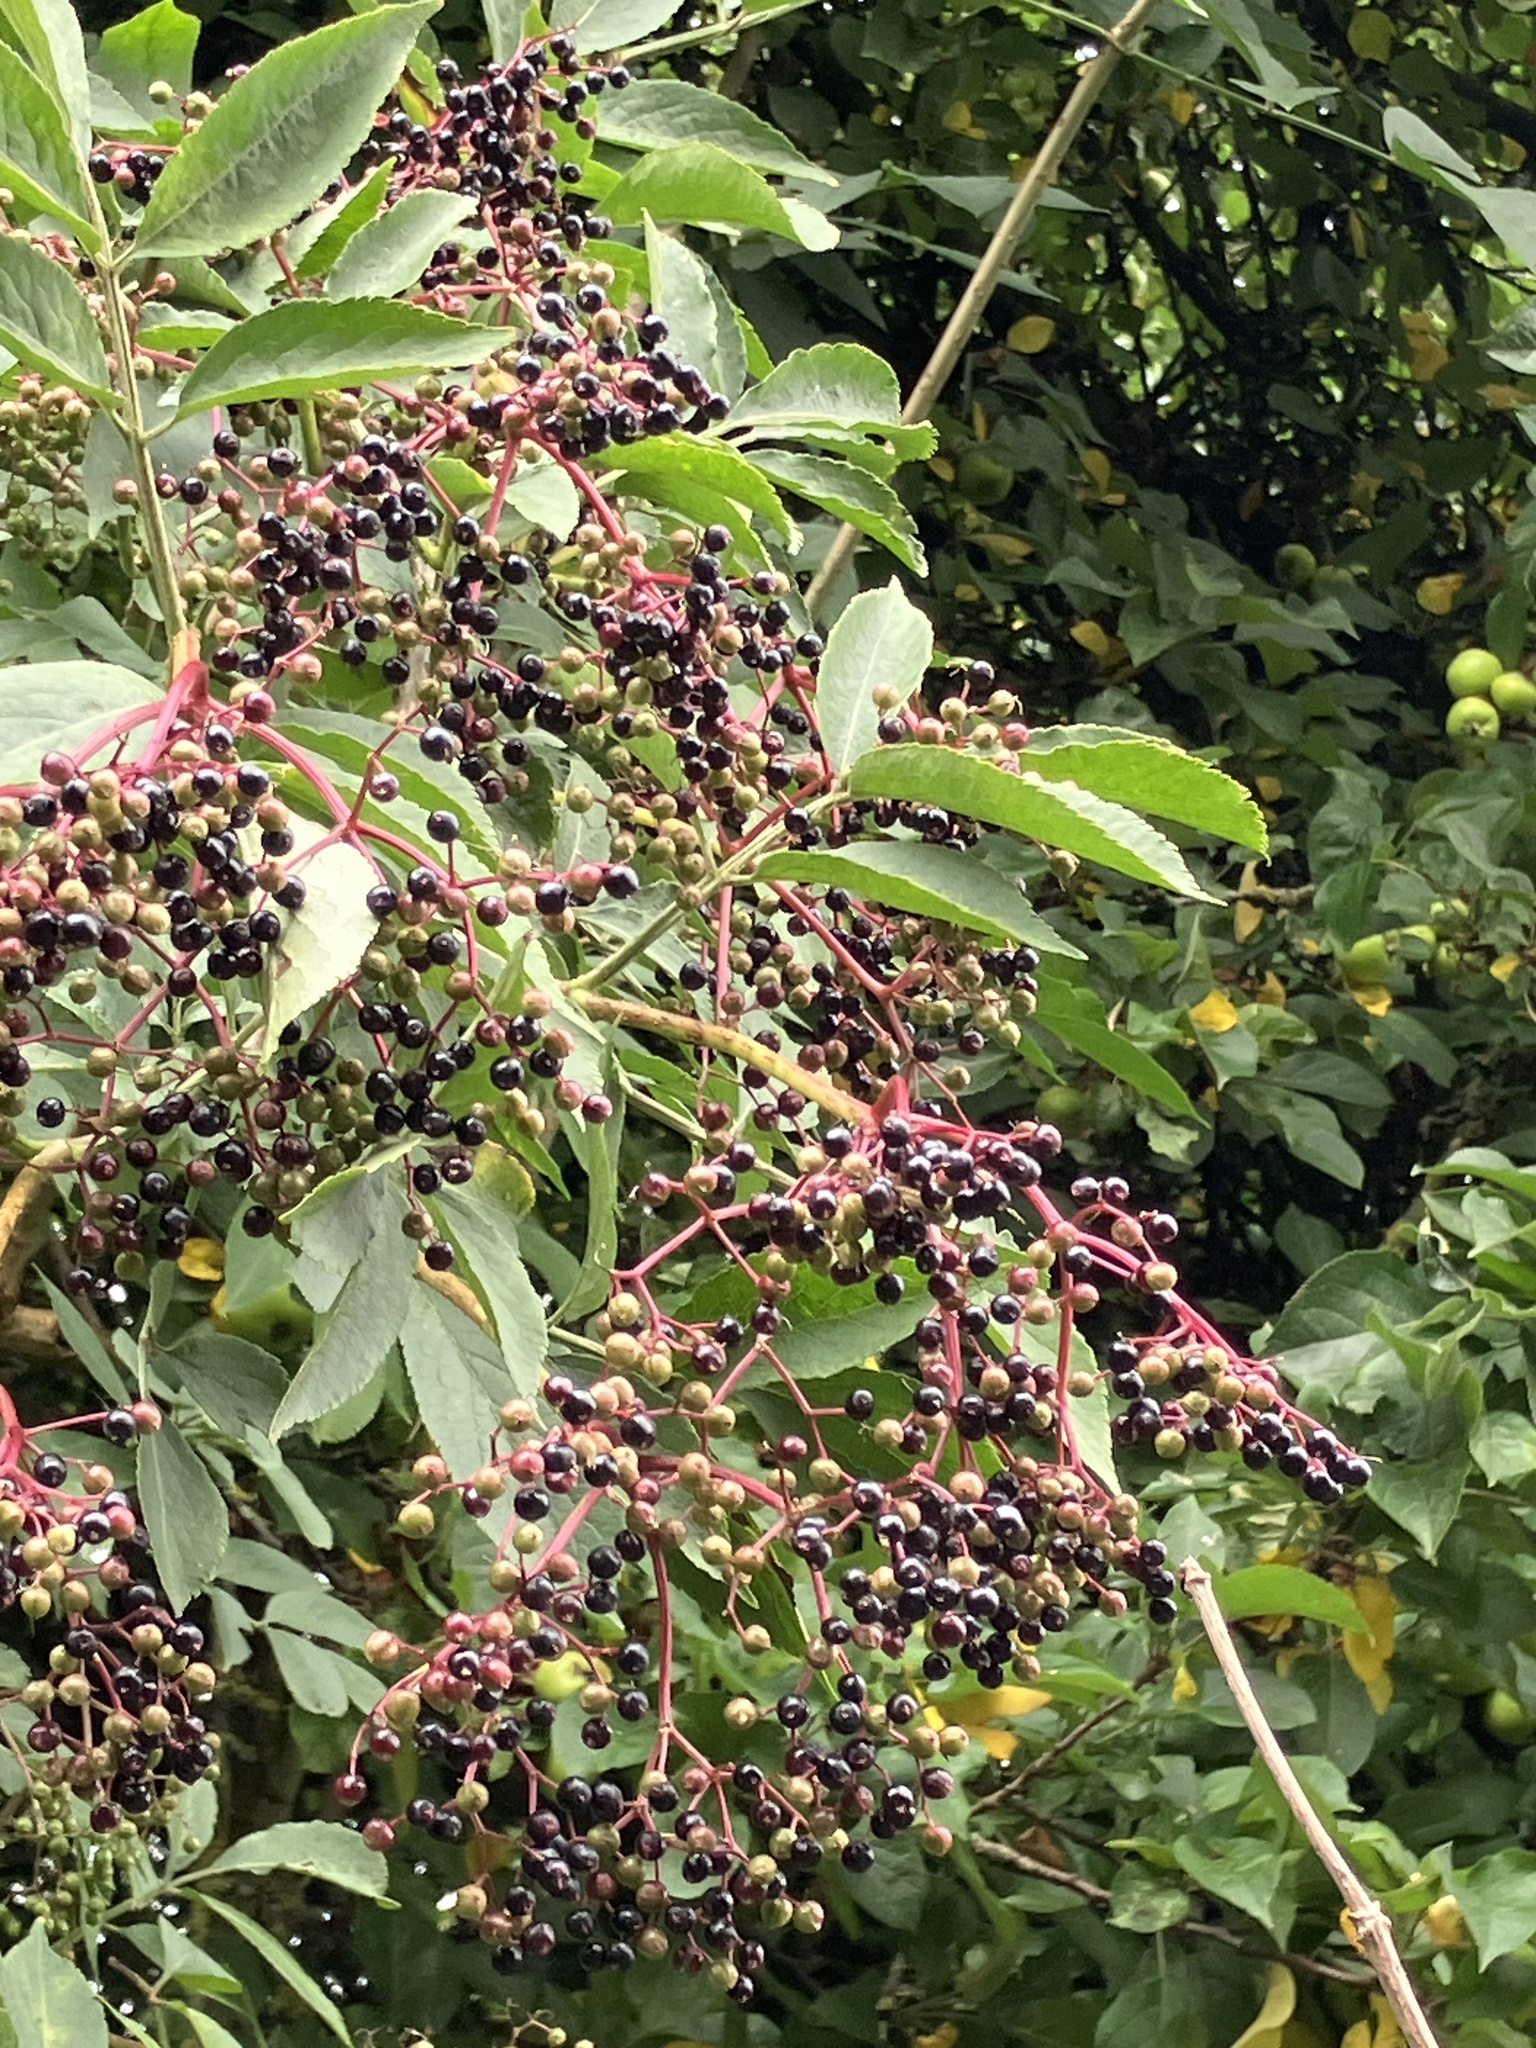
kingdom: Plantae
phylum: Tracheophyta
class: Magnoliopsida
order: Dipsacales
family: Viburnaceae
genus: Sambucus
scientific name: Sambucus nigra
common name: Elder
